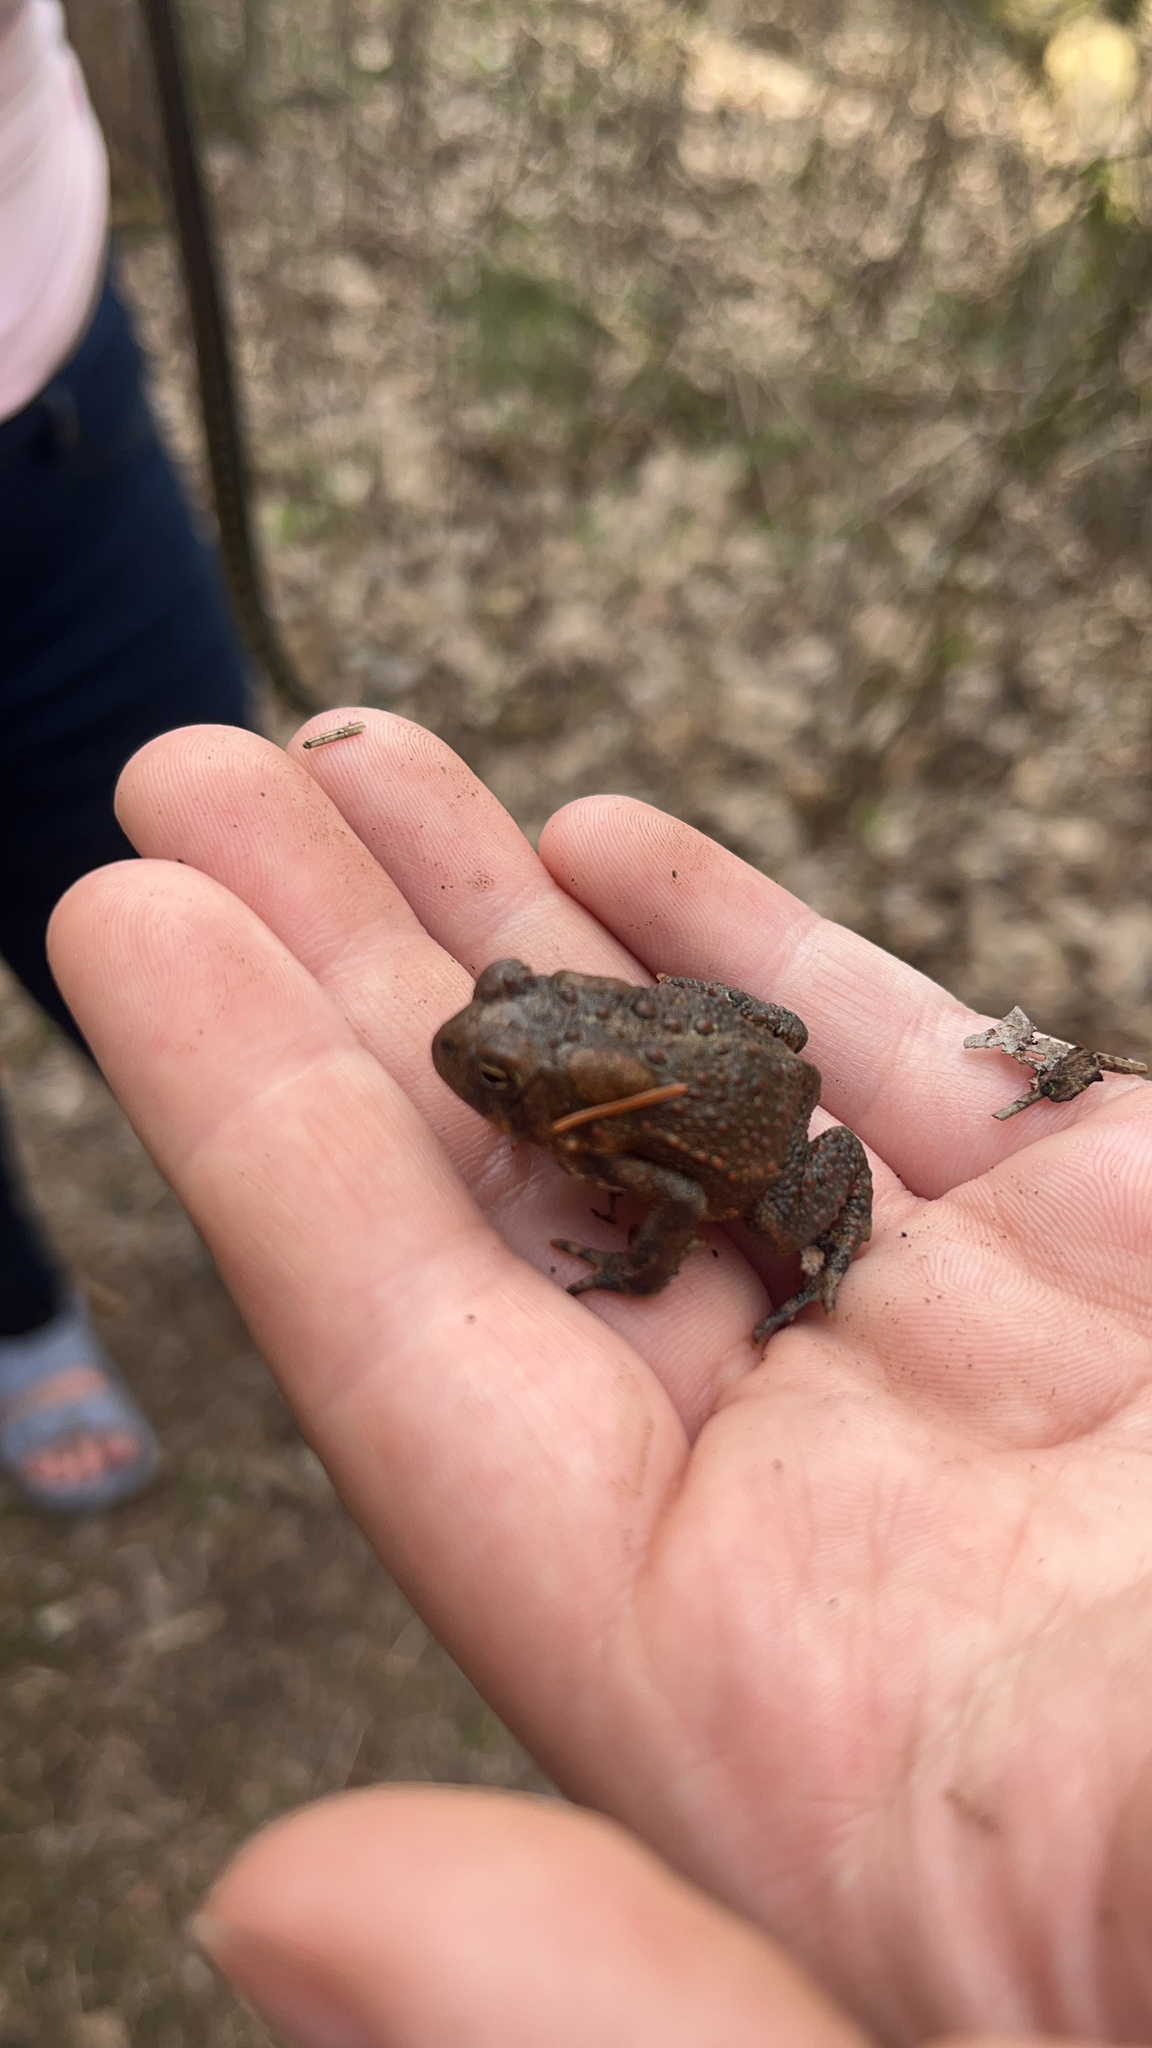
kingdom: Animalia
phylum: Chordata
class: Amphibia
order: Anura
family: Bufonidae
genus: Anaxyrus
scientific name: Anaxyrus americanus
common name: American toad
